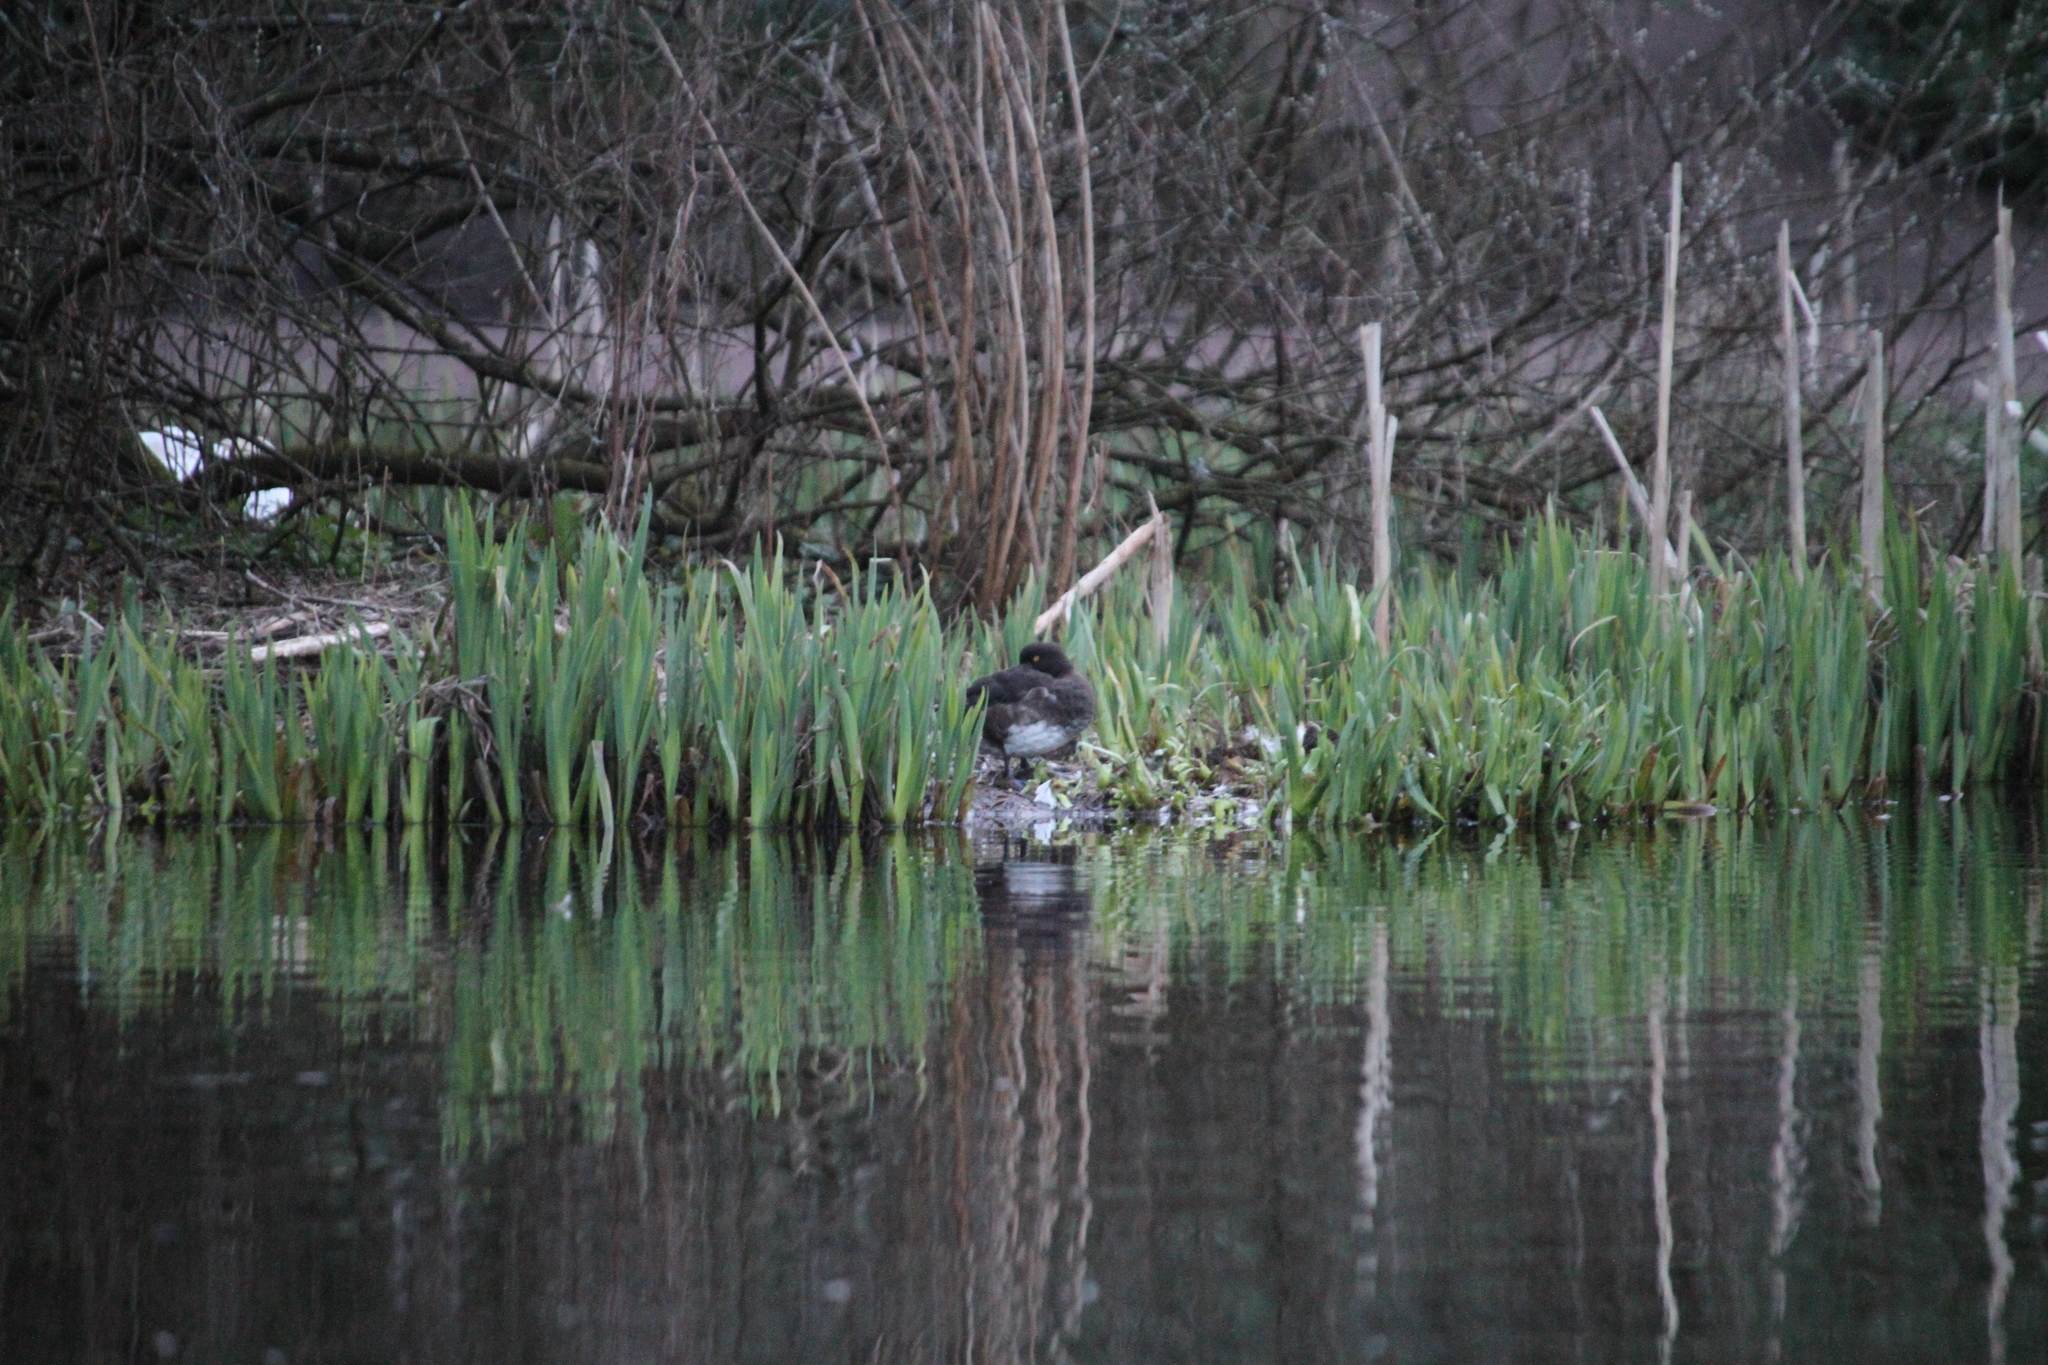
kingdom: Animalia
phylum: Chordata
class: Aves
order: Anseriformes
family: Anatidae
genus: Aythya
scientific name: Aythya fuligula
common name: Tufted duck
